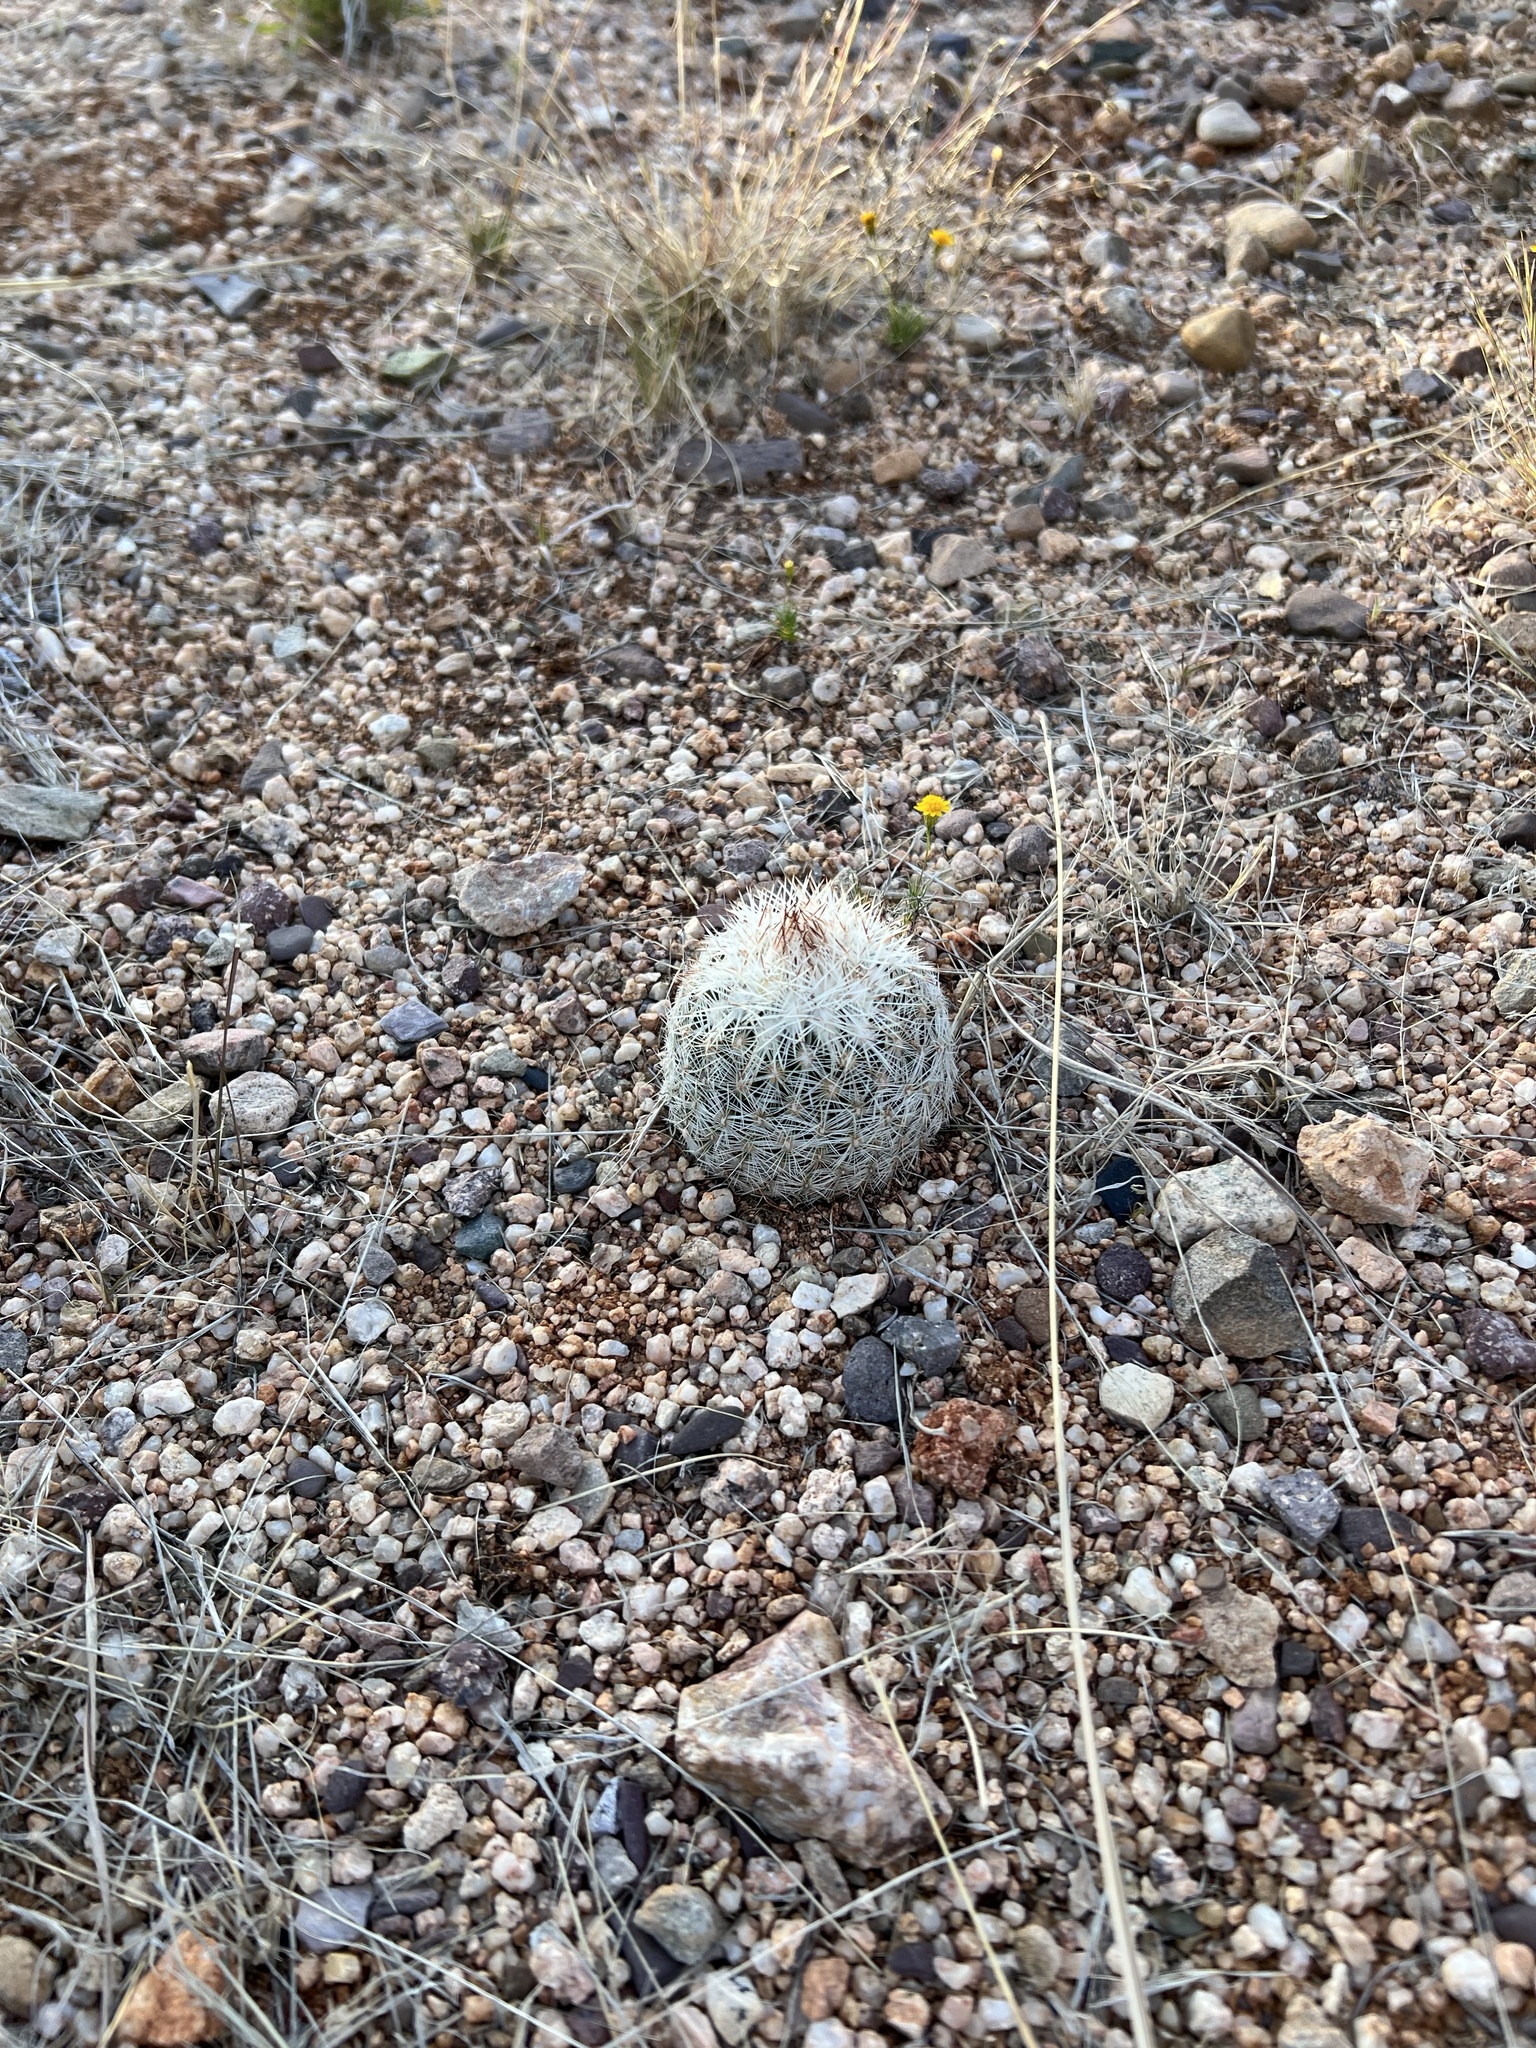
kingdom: Plantae
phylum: Tracheophyta
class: Magnoliopsida
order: Caryophyllales
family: Cactaceae
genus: Pelecyphora
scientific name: Pelecyphora vivipara
